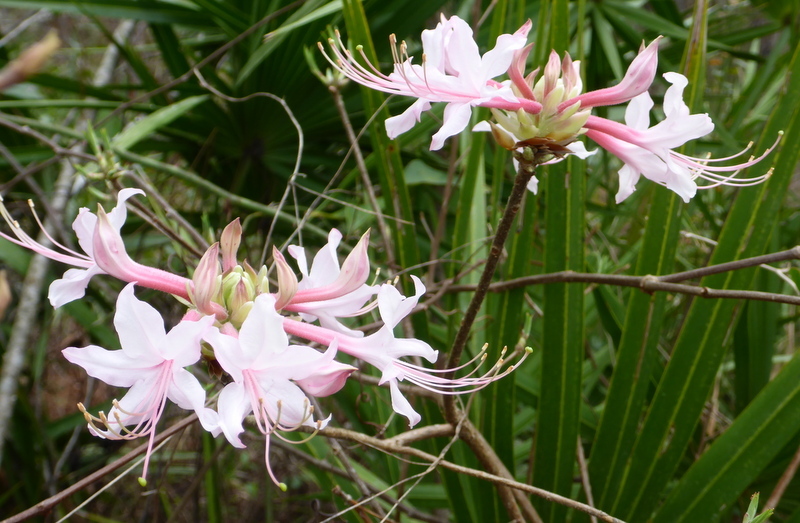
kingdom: Plantae
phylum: Tracheophyta
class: Magnoliopsida
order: Ericales
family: Ericaceae
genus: Rhododendron
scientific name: Rhododendron canescens
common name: Mountain azalea
